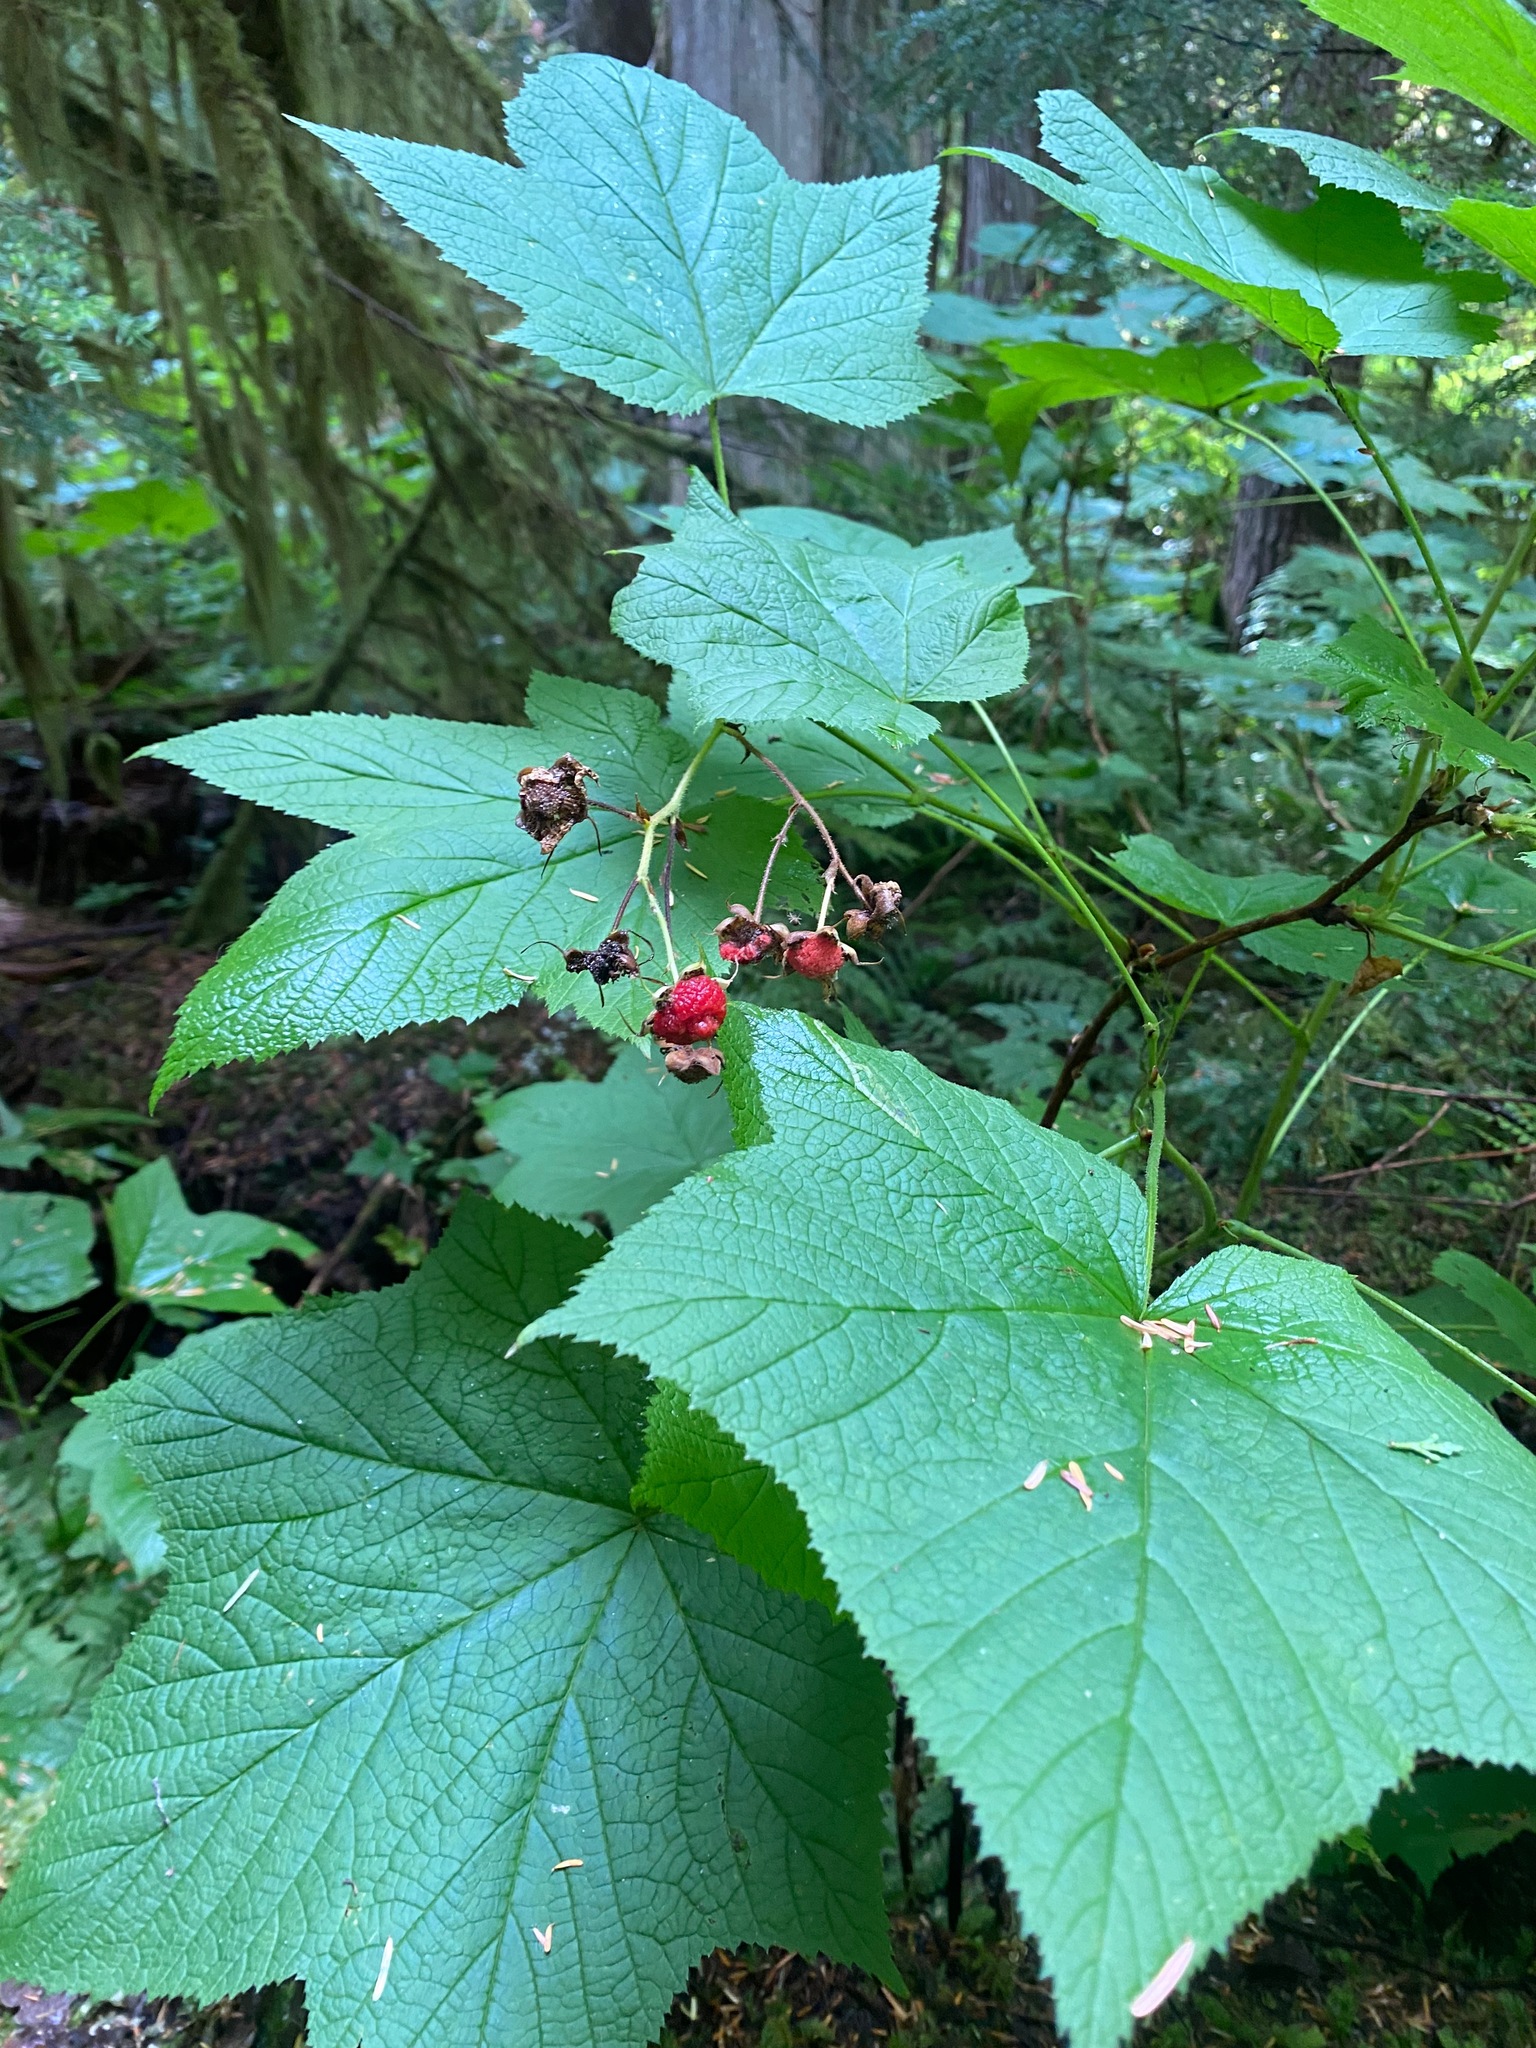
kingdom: Plantae
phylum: Tracheophyta
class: Magnoliopsida
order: Rosales
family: Rosaceae
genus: Rubus
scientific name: Rubus parviflorus
